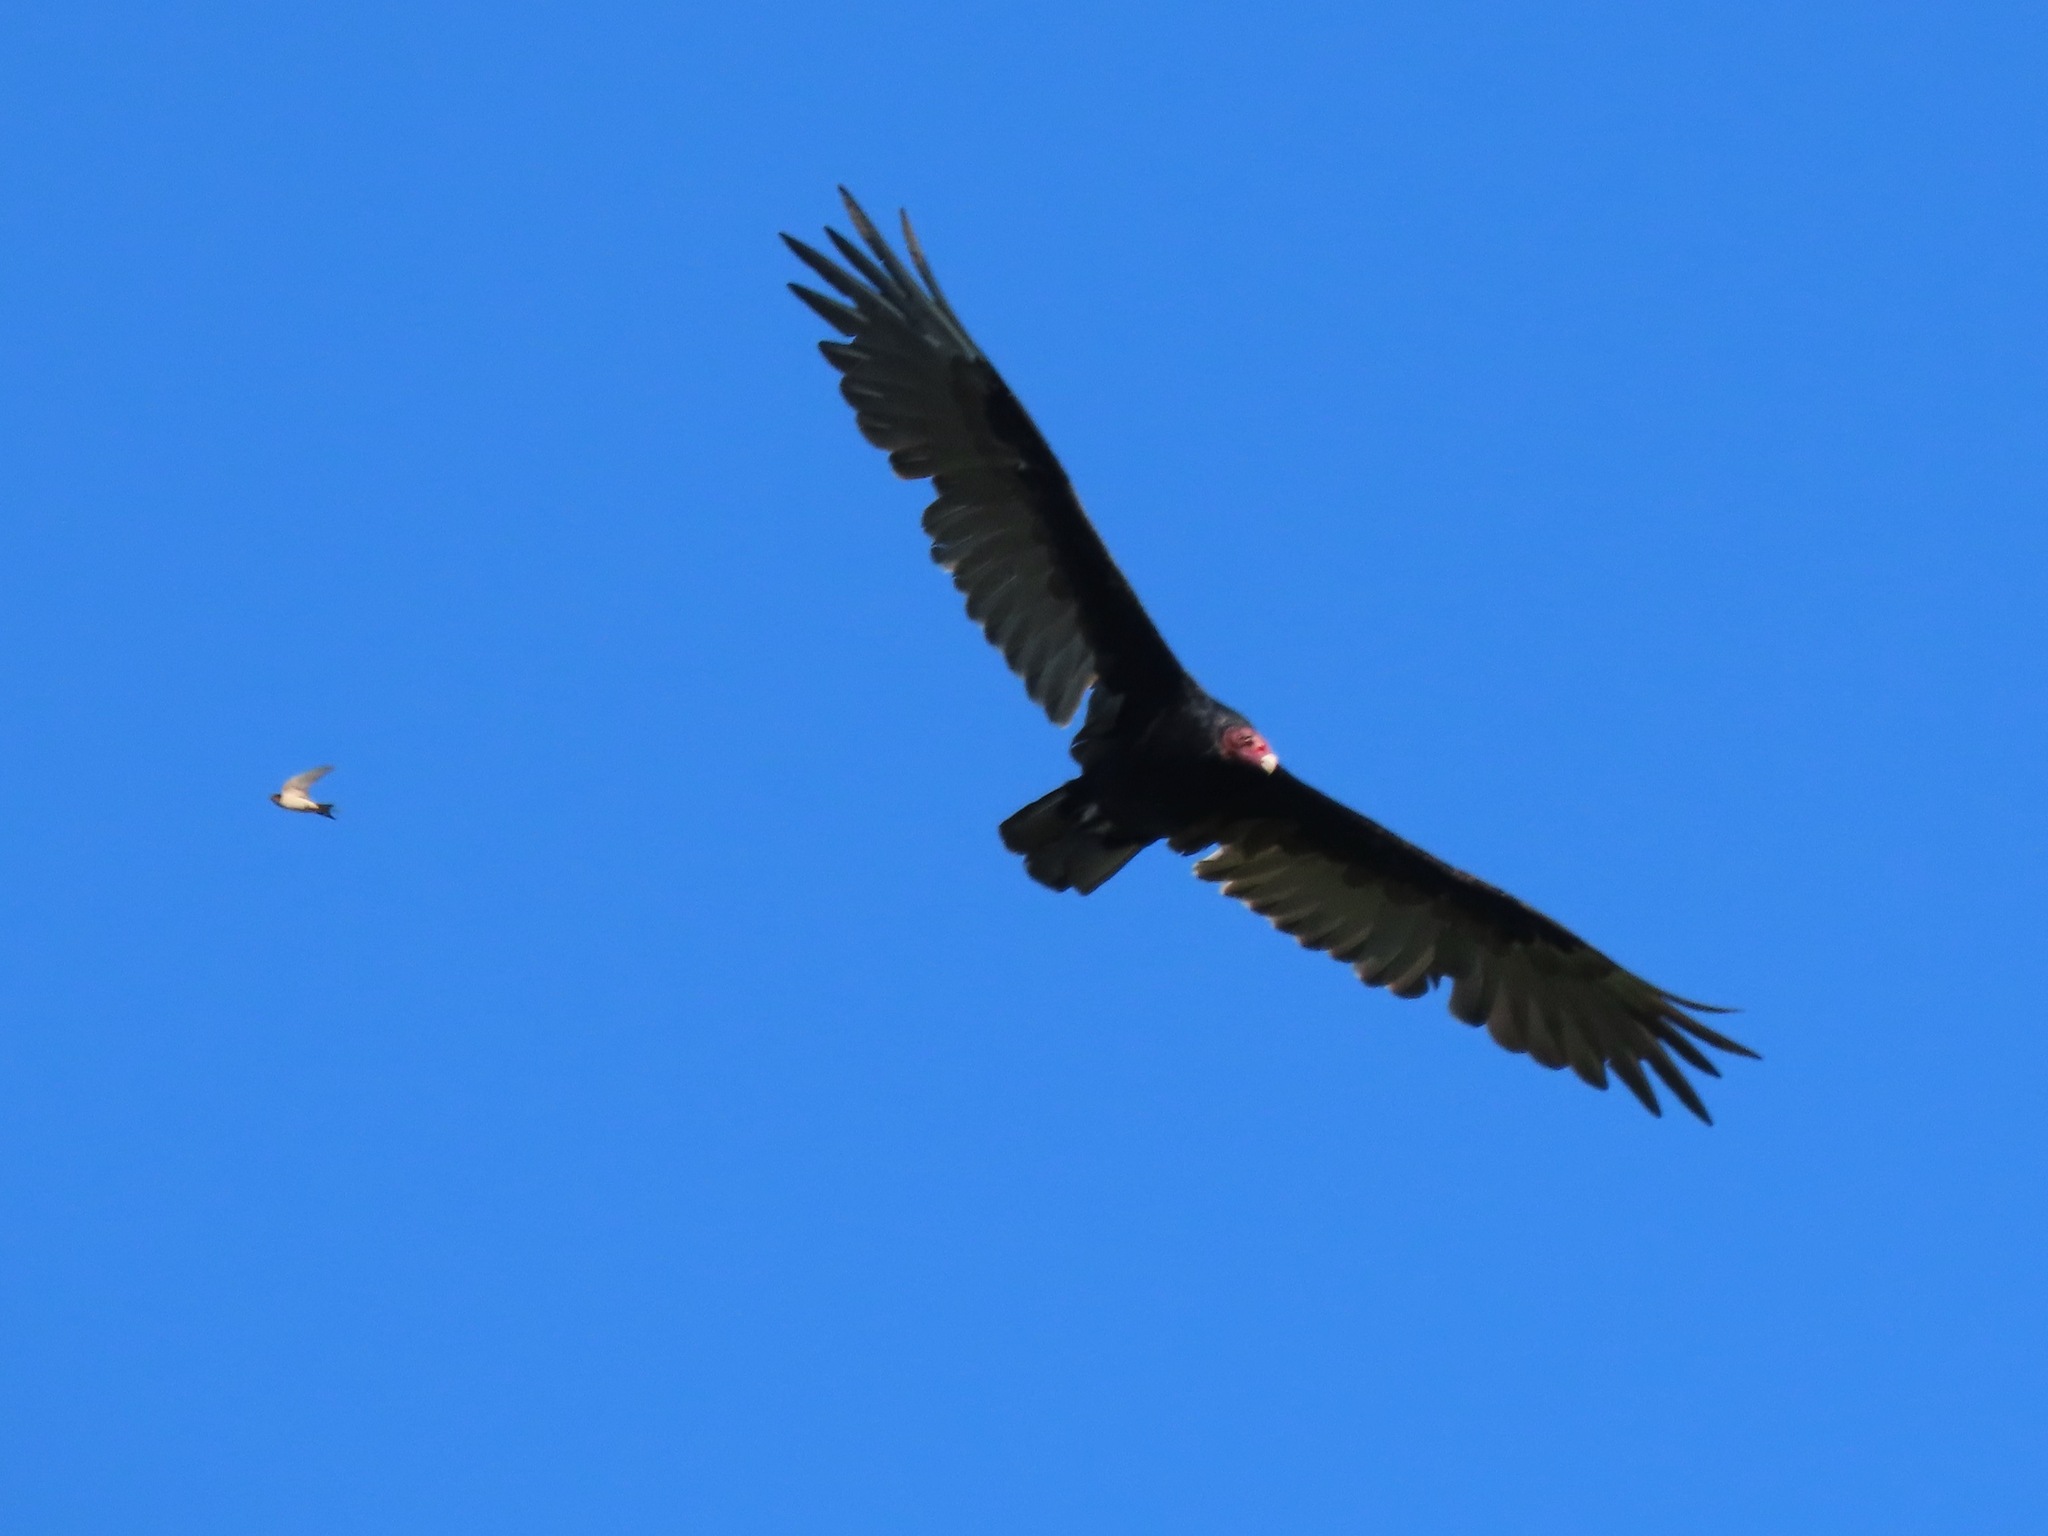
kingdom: Animalia
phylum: Chordata
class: Aves
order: Accipitriformes
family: Cathartidae
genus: Cathartes
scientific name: Cathartes aura
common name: Turkey vulture
